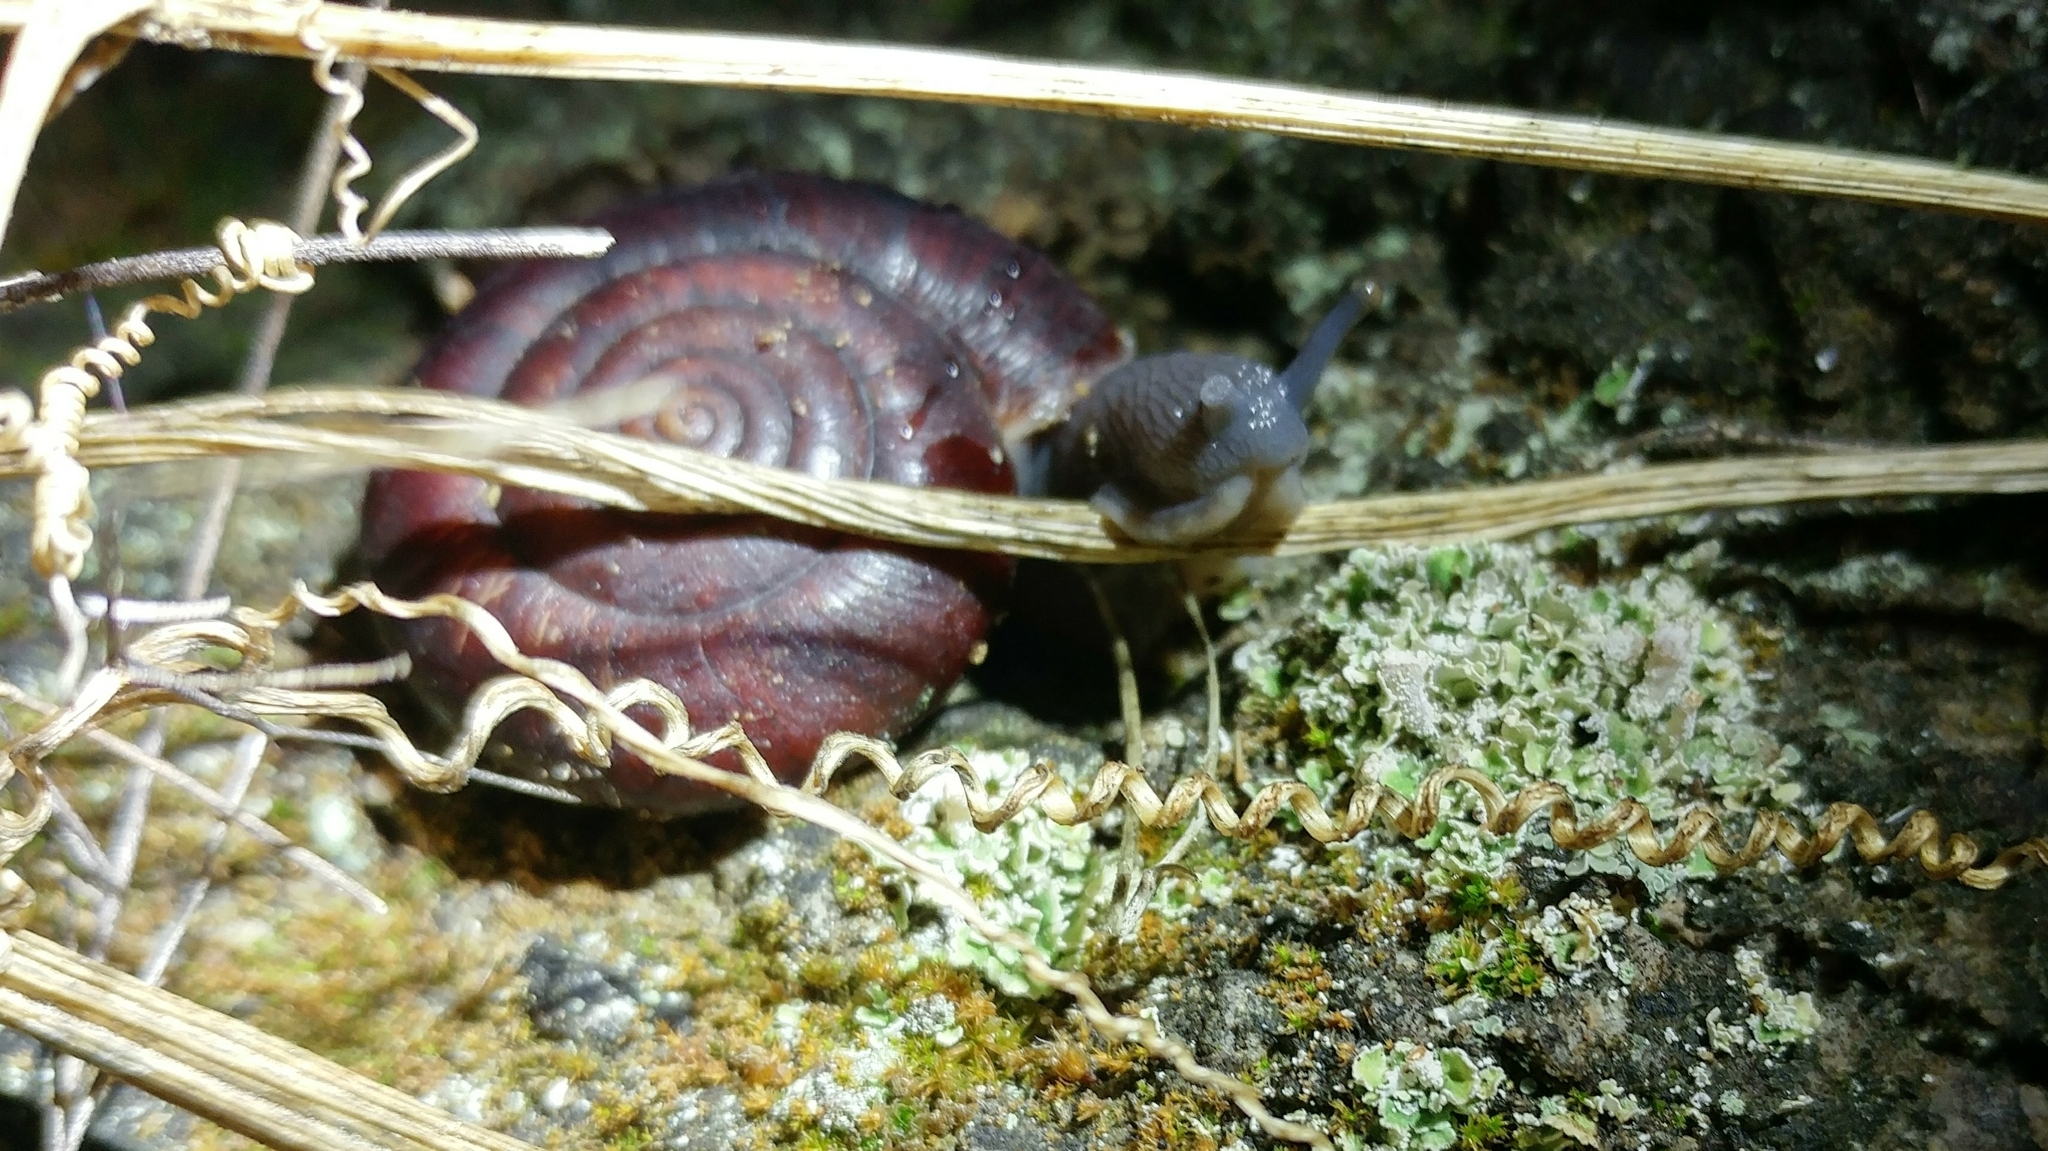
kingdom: Animalia
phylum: Mollusca
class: Gastropoda
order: Stylommatophora
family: Megomphicidae
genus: Glyptostoma
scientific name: Glyptostoma newberryanum
